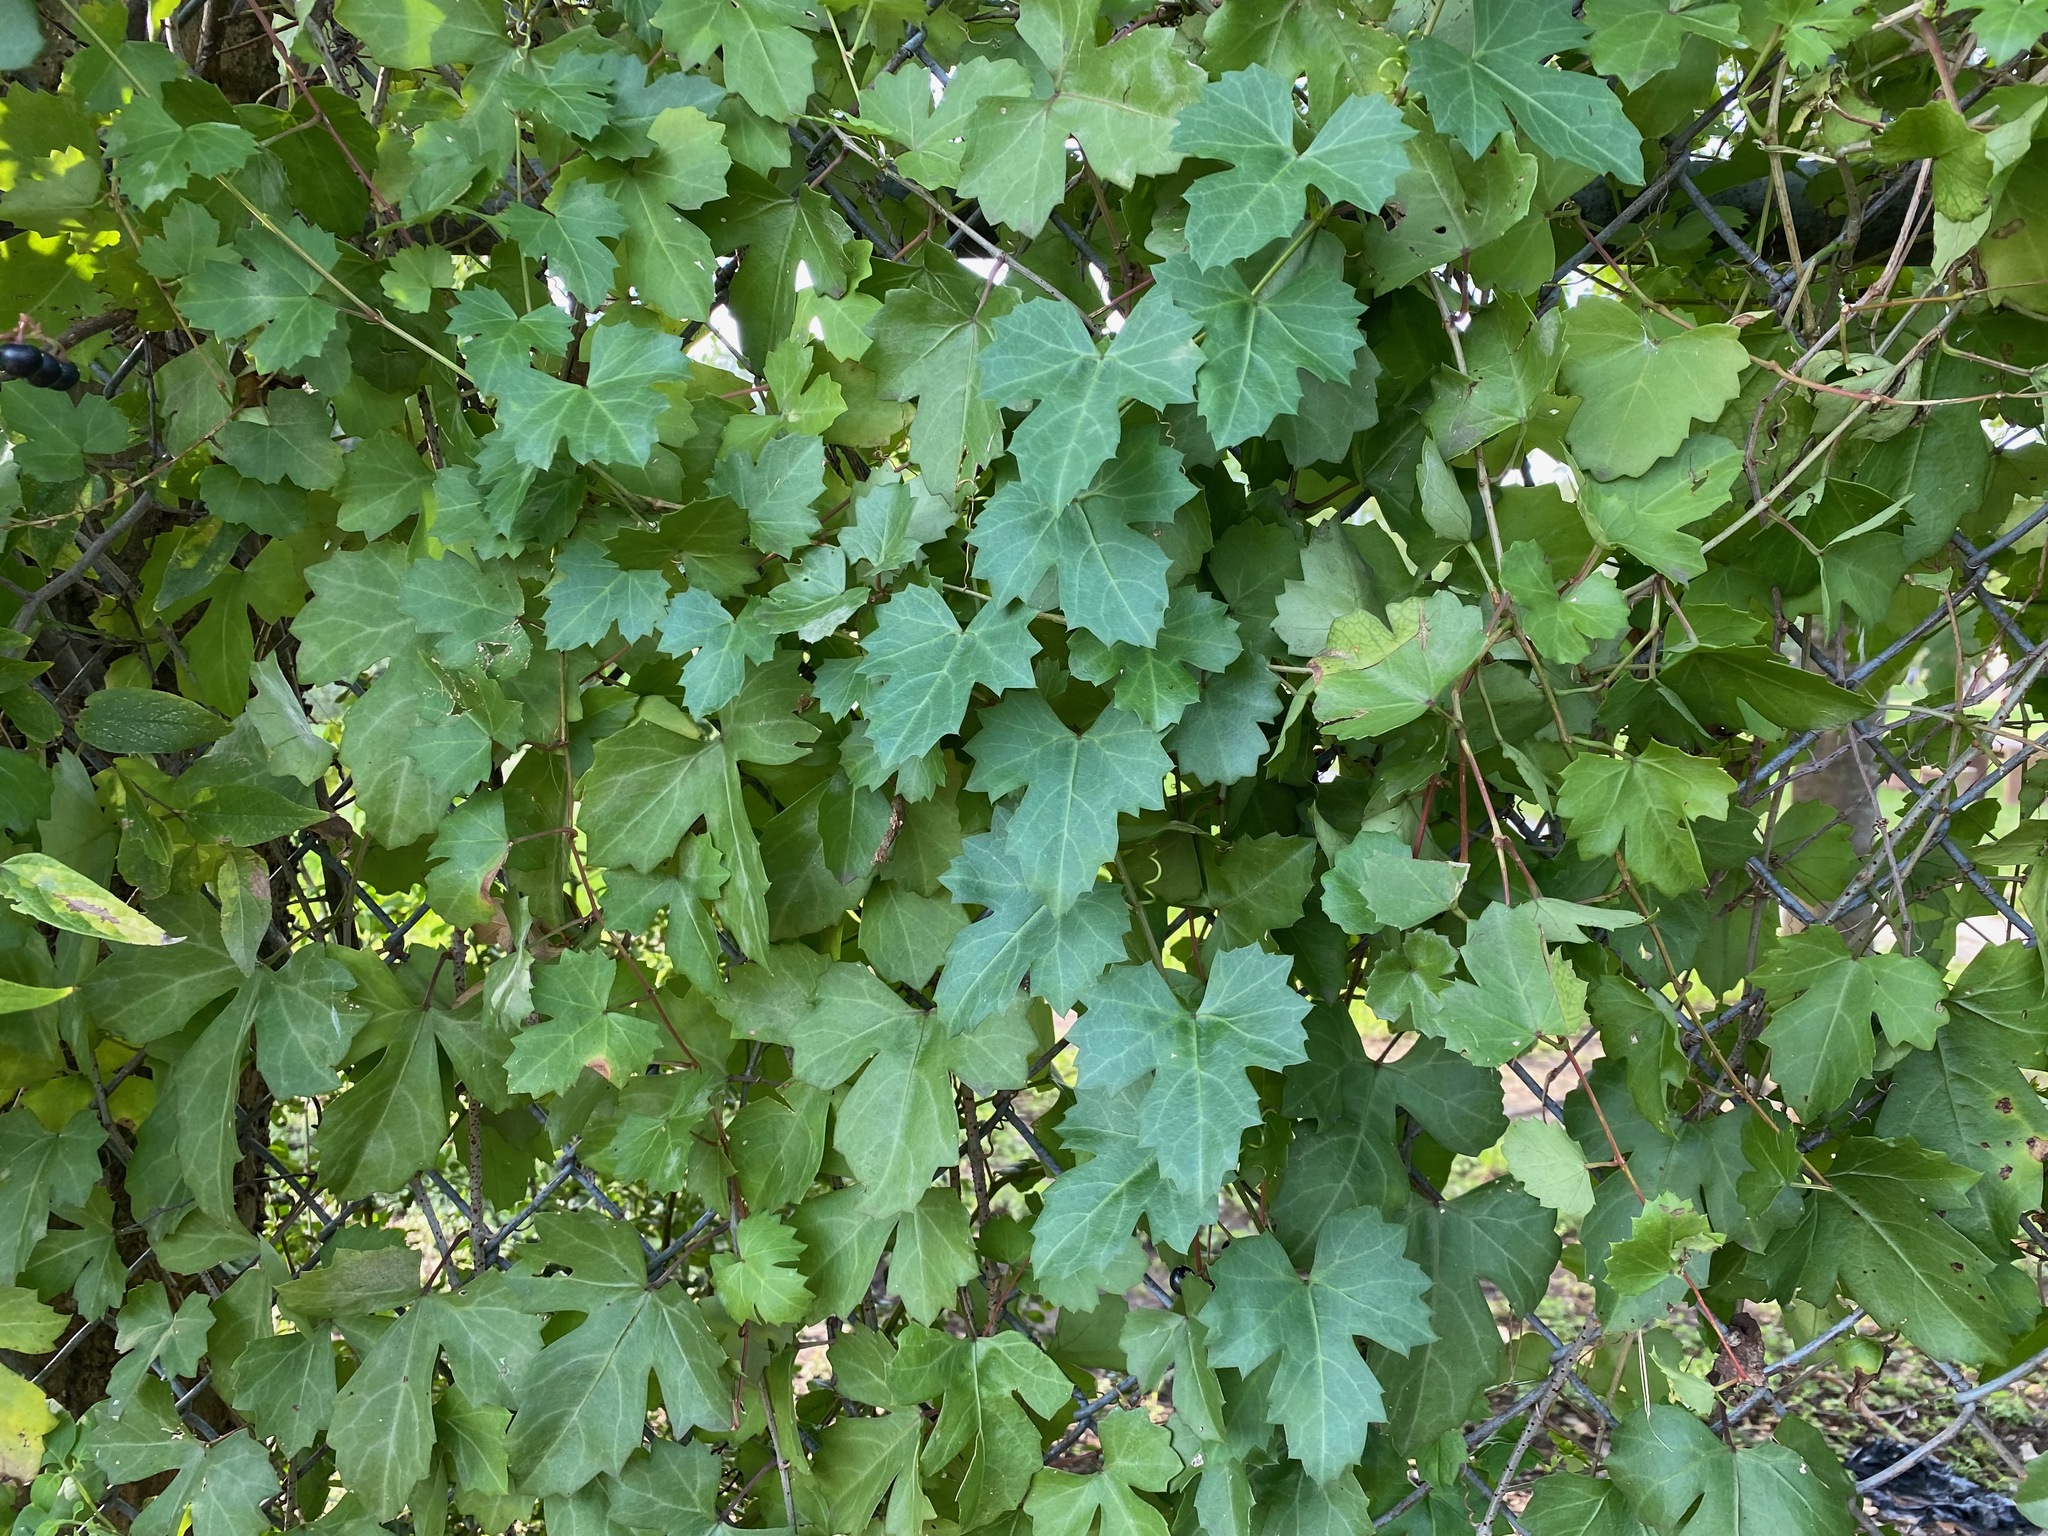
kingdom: Plantae
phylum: Tracheophyta
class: Magnoliopsida
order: Vitales
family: Vitaceae
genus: Cissus
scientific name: Cissus trifoliata
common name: Vine-sorrel
